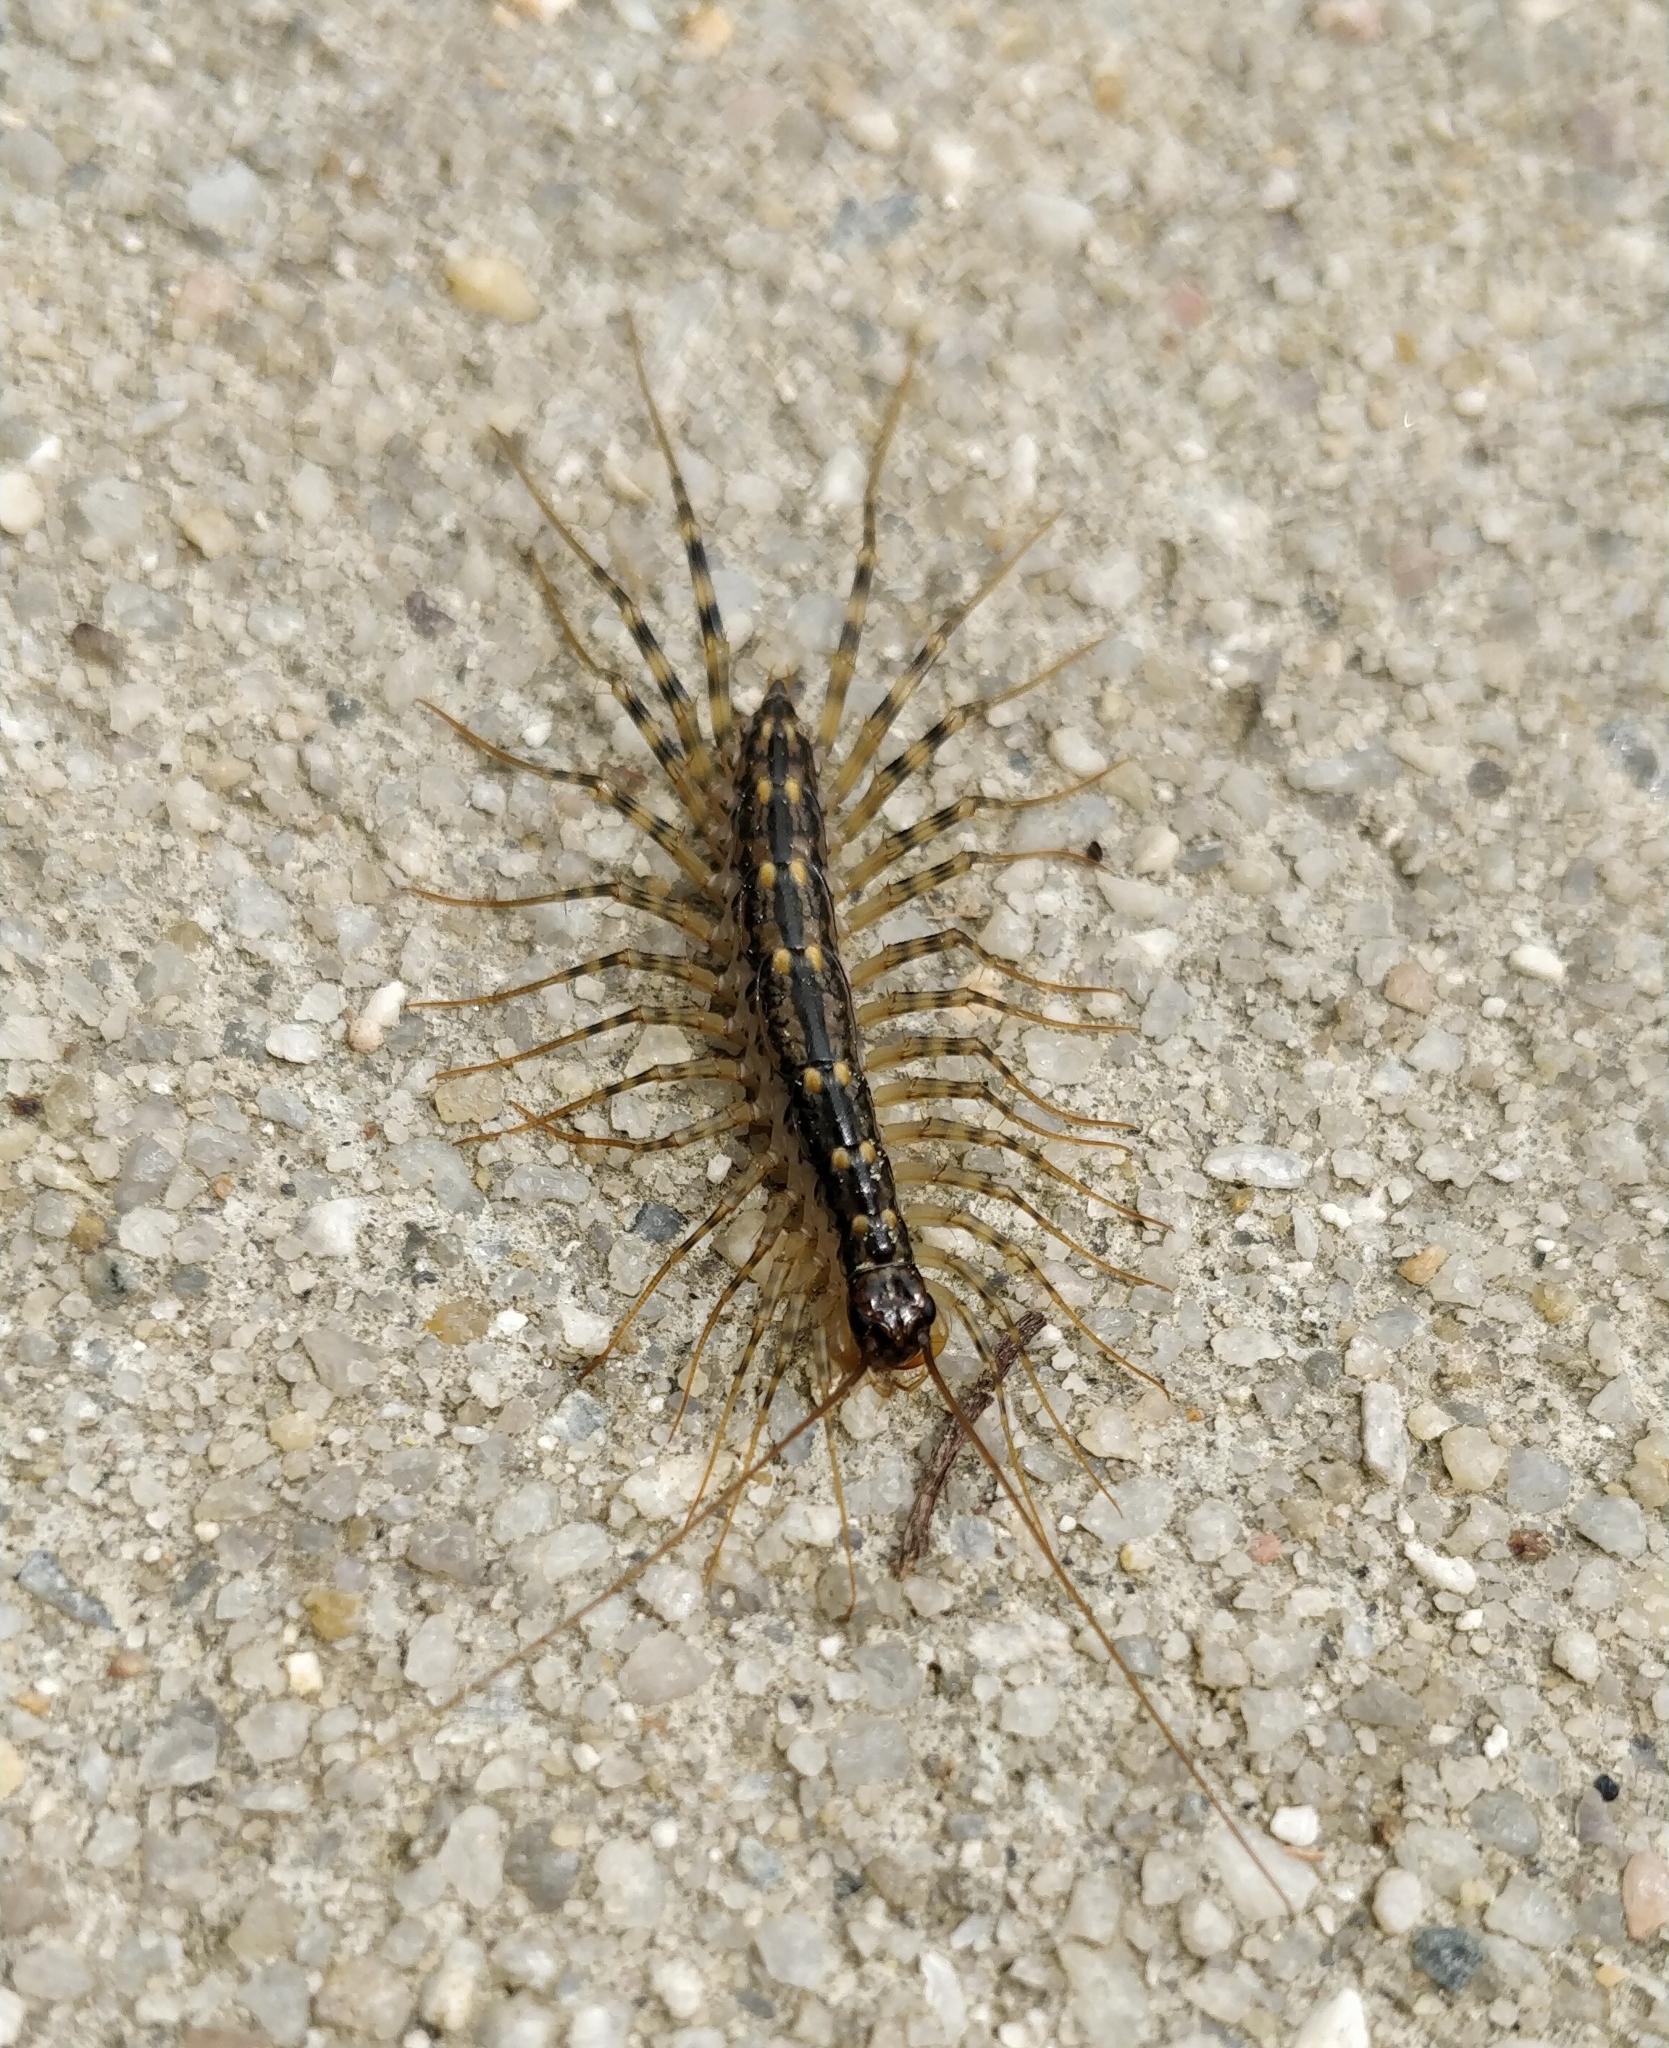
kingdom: Animalia
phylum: Arthropoda
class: Chilopoda
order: Scutigeromorpha
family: Scutigeridae
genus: Scutigera
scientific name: Scutigera coleoptrata
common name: House centipede
